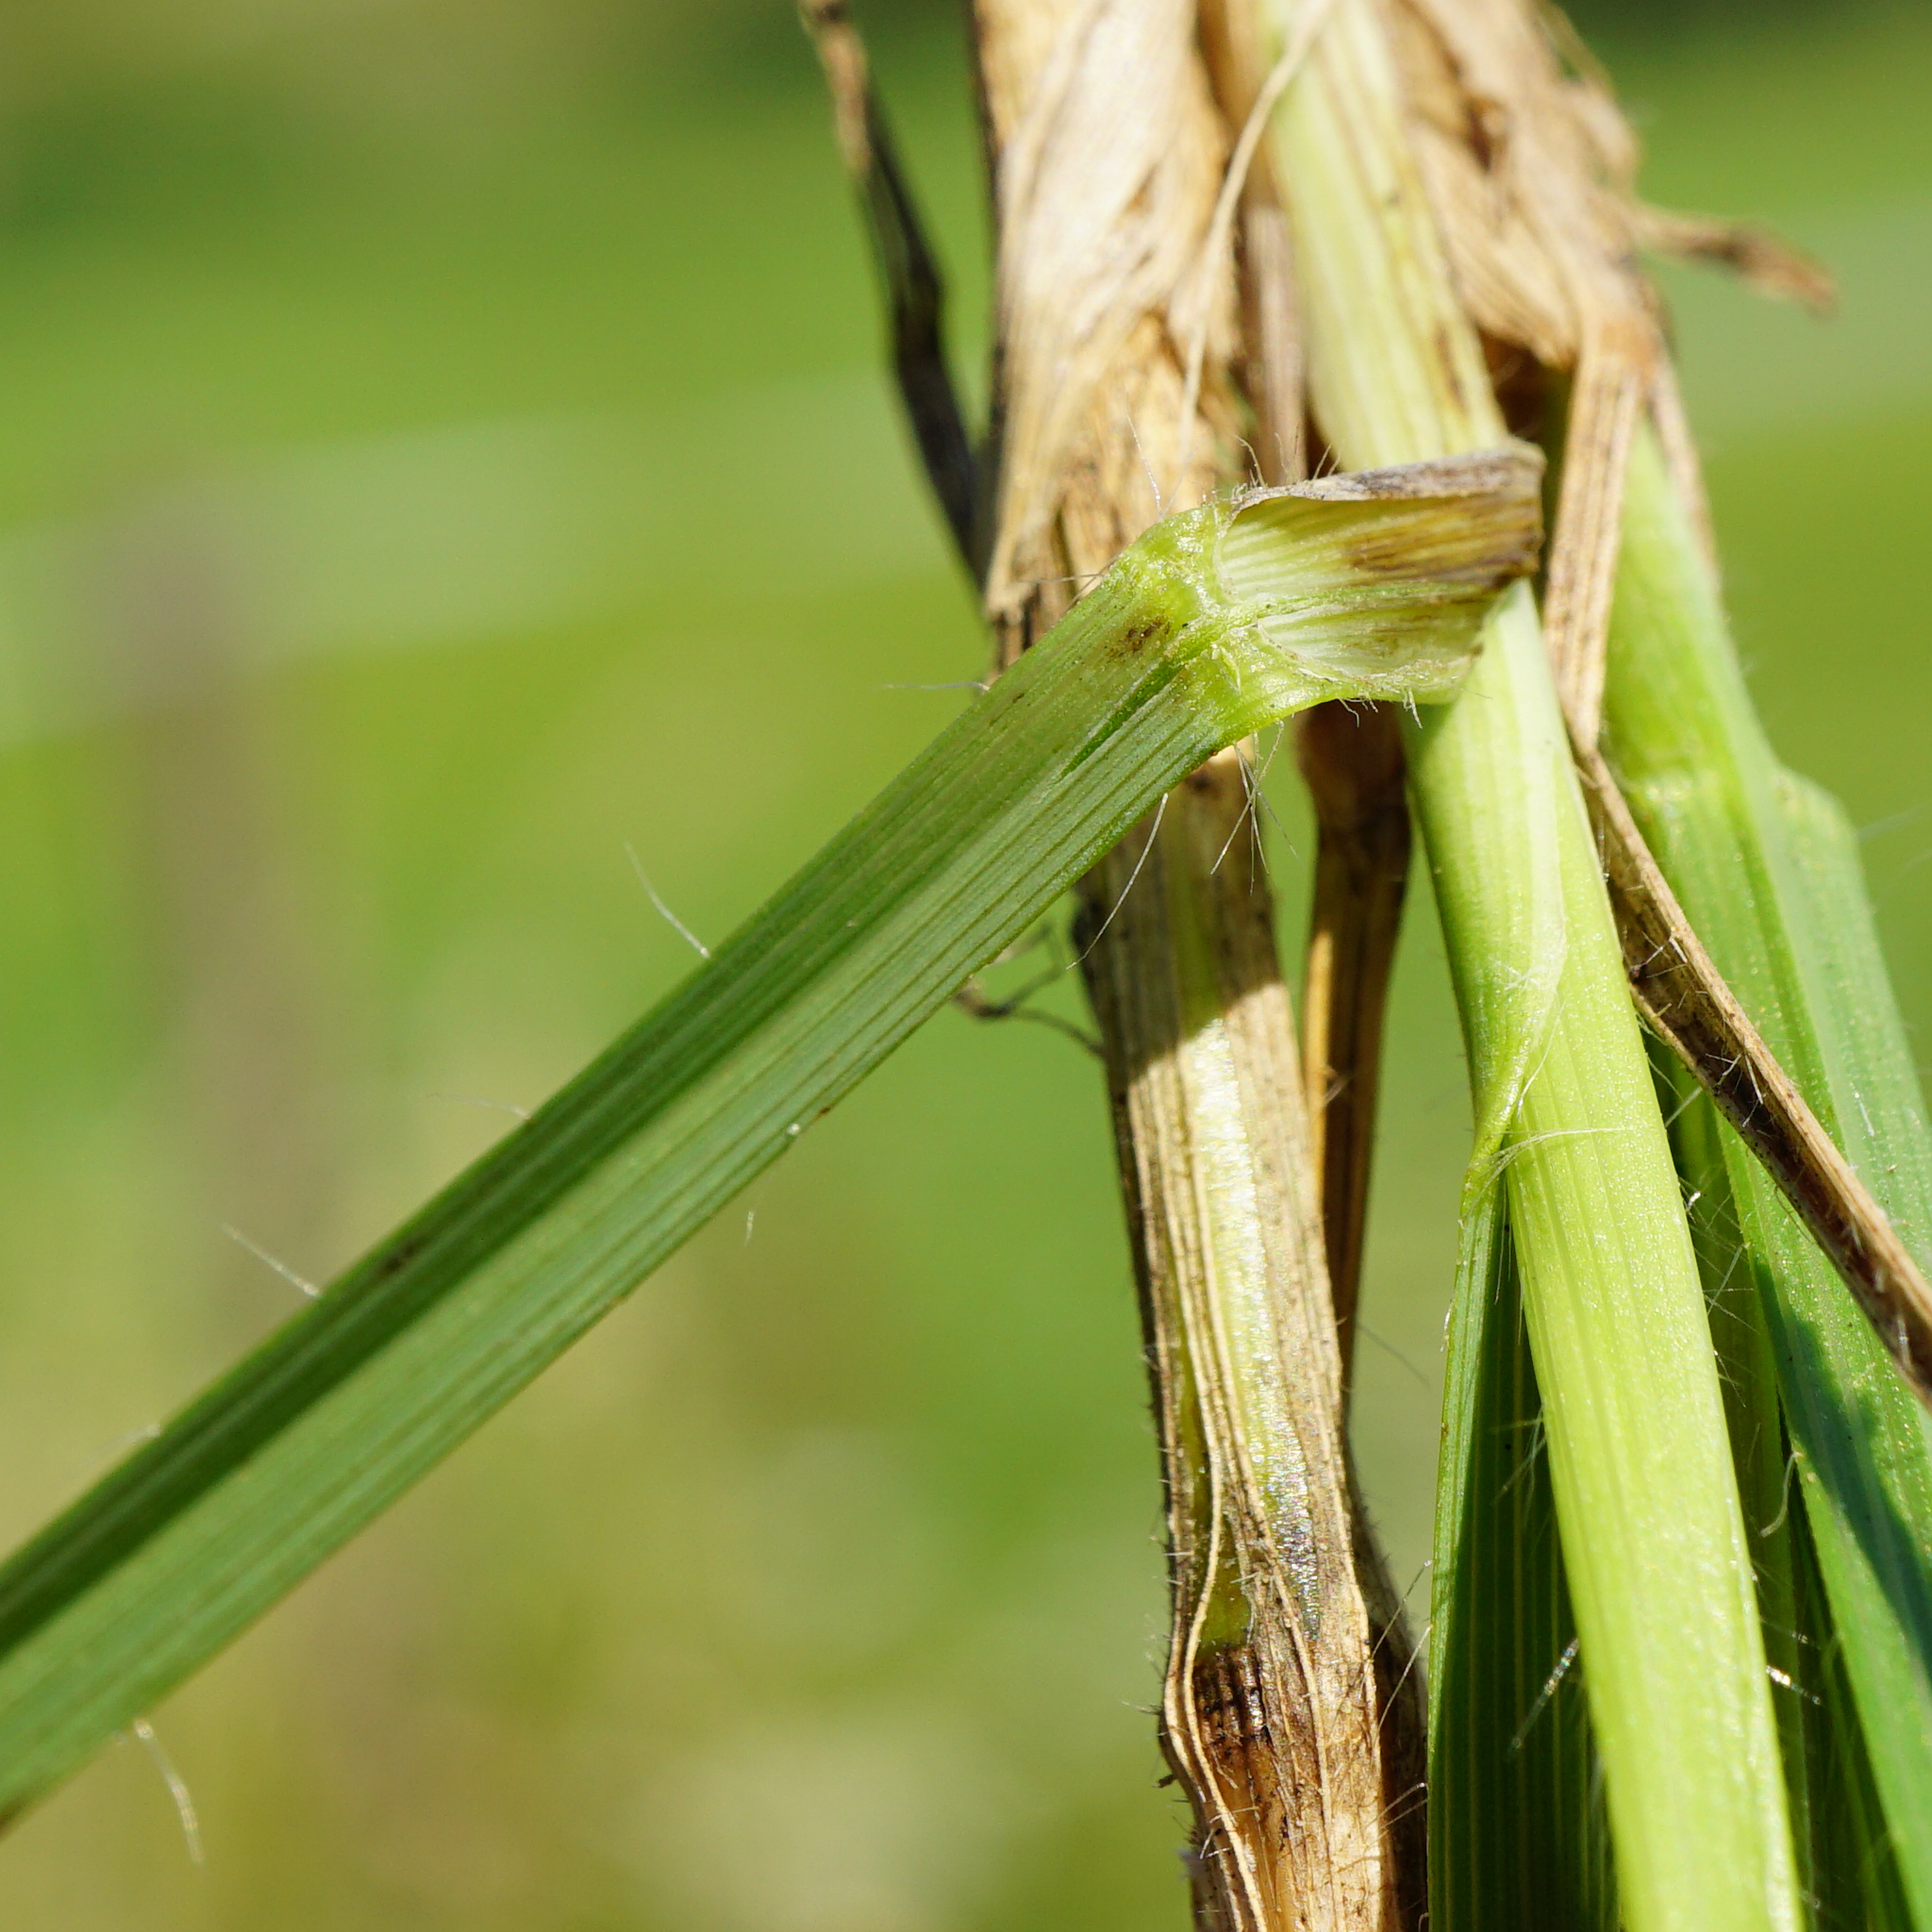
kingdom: Plantae
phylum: Tracheophyta
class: Liliopsida
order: Poales
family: Poaceae
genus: Bromus
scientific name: Bromus erectus
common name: Erect brome
